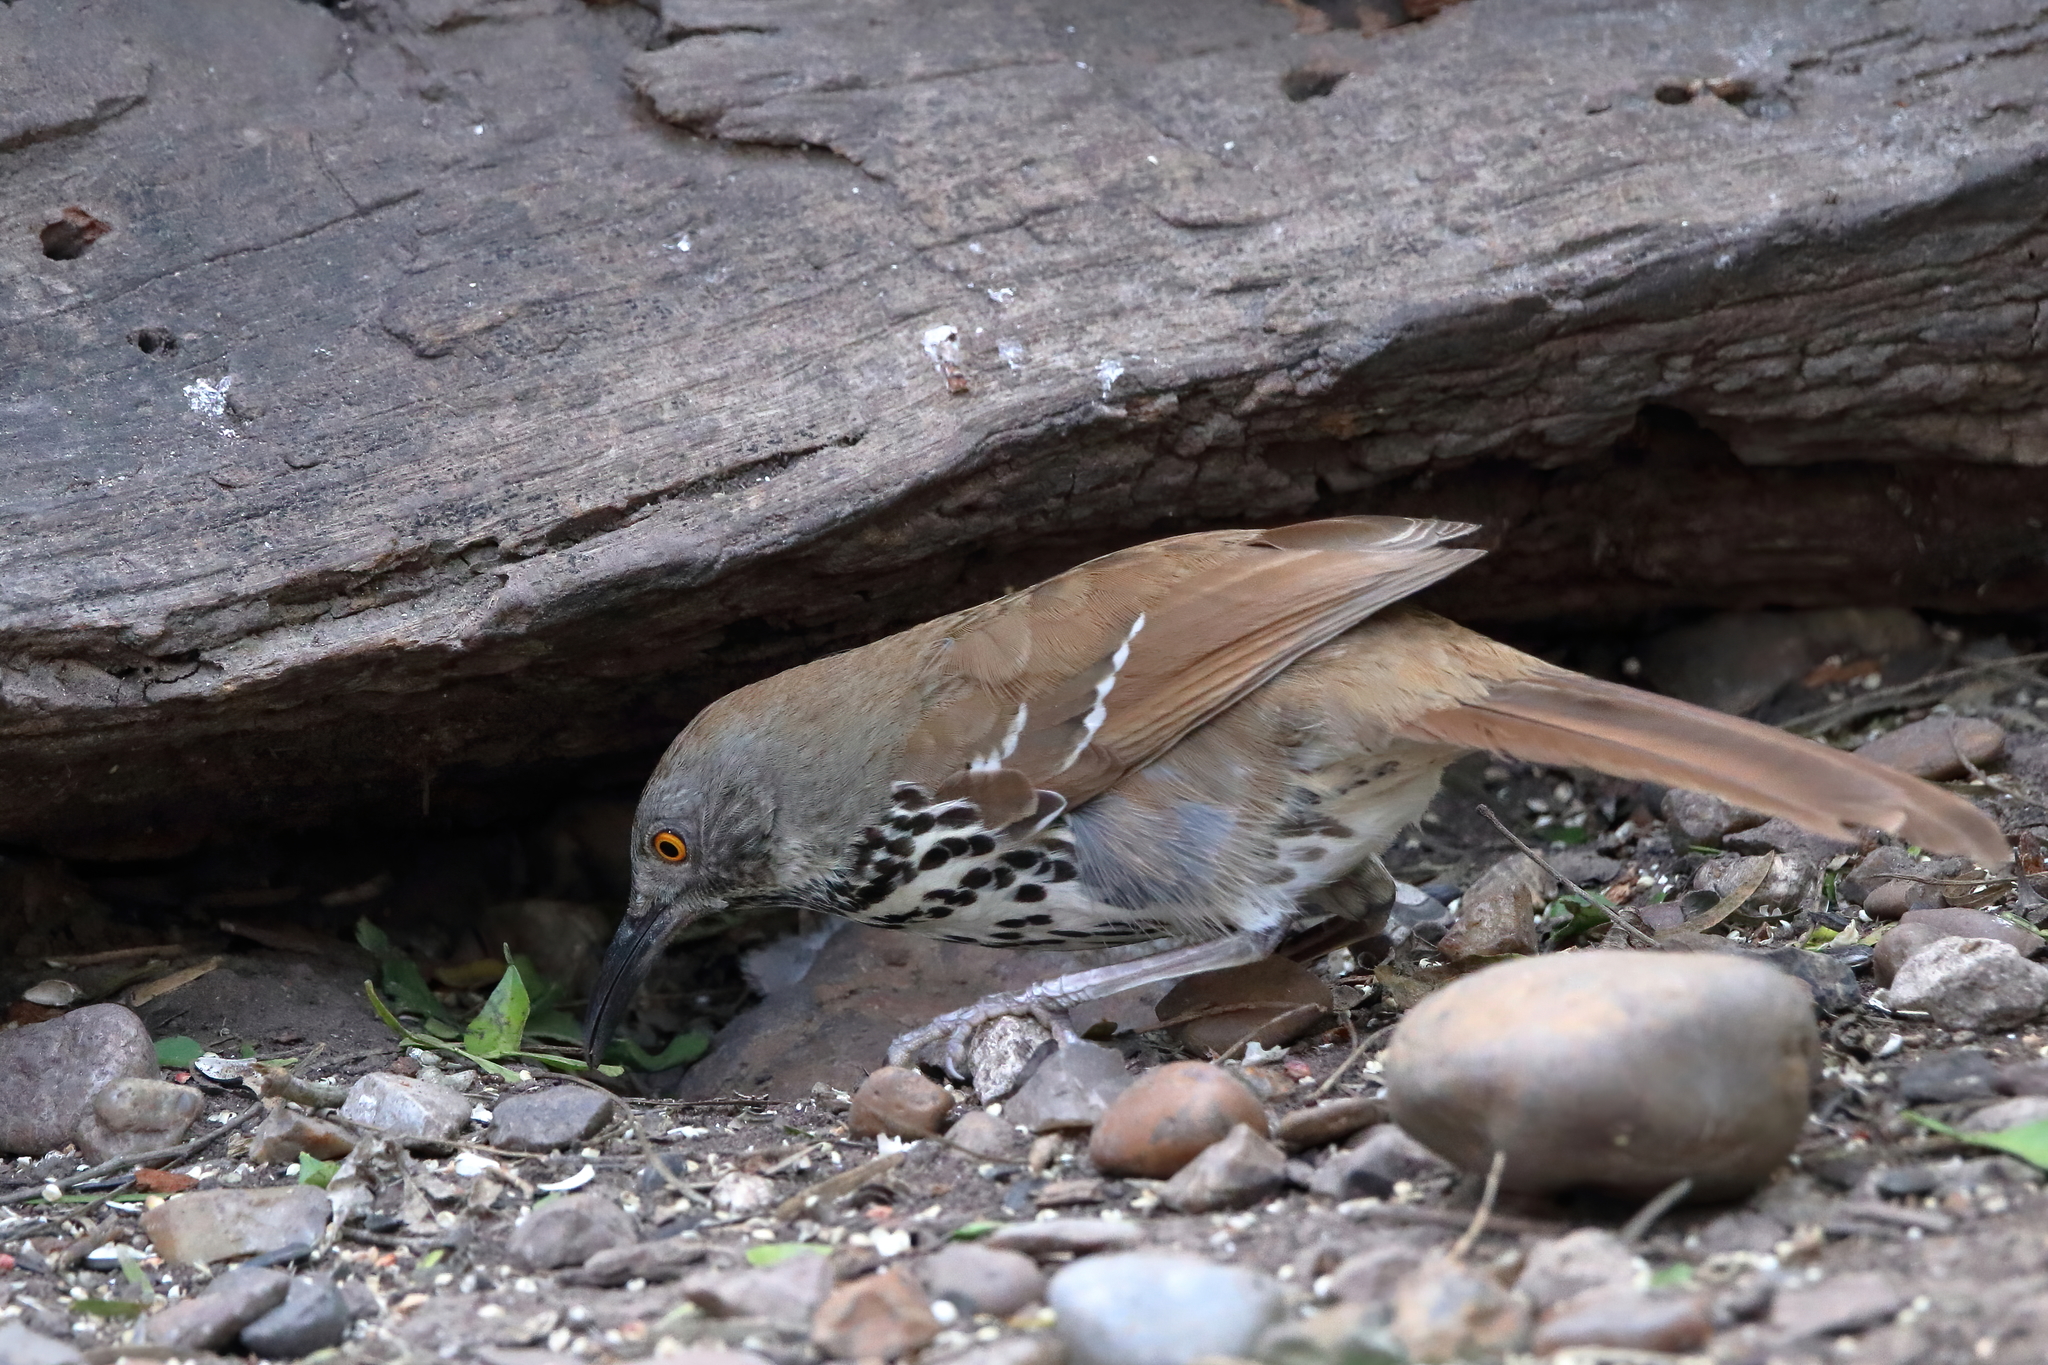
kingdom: Animalia
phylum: Chordata
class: Aves
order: Passeriformes
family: Mimidae
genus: Toxostoma
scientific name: Toxostoma longirostre
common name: Long-billed thrasher
